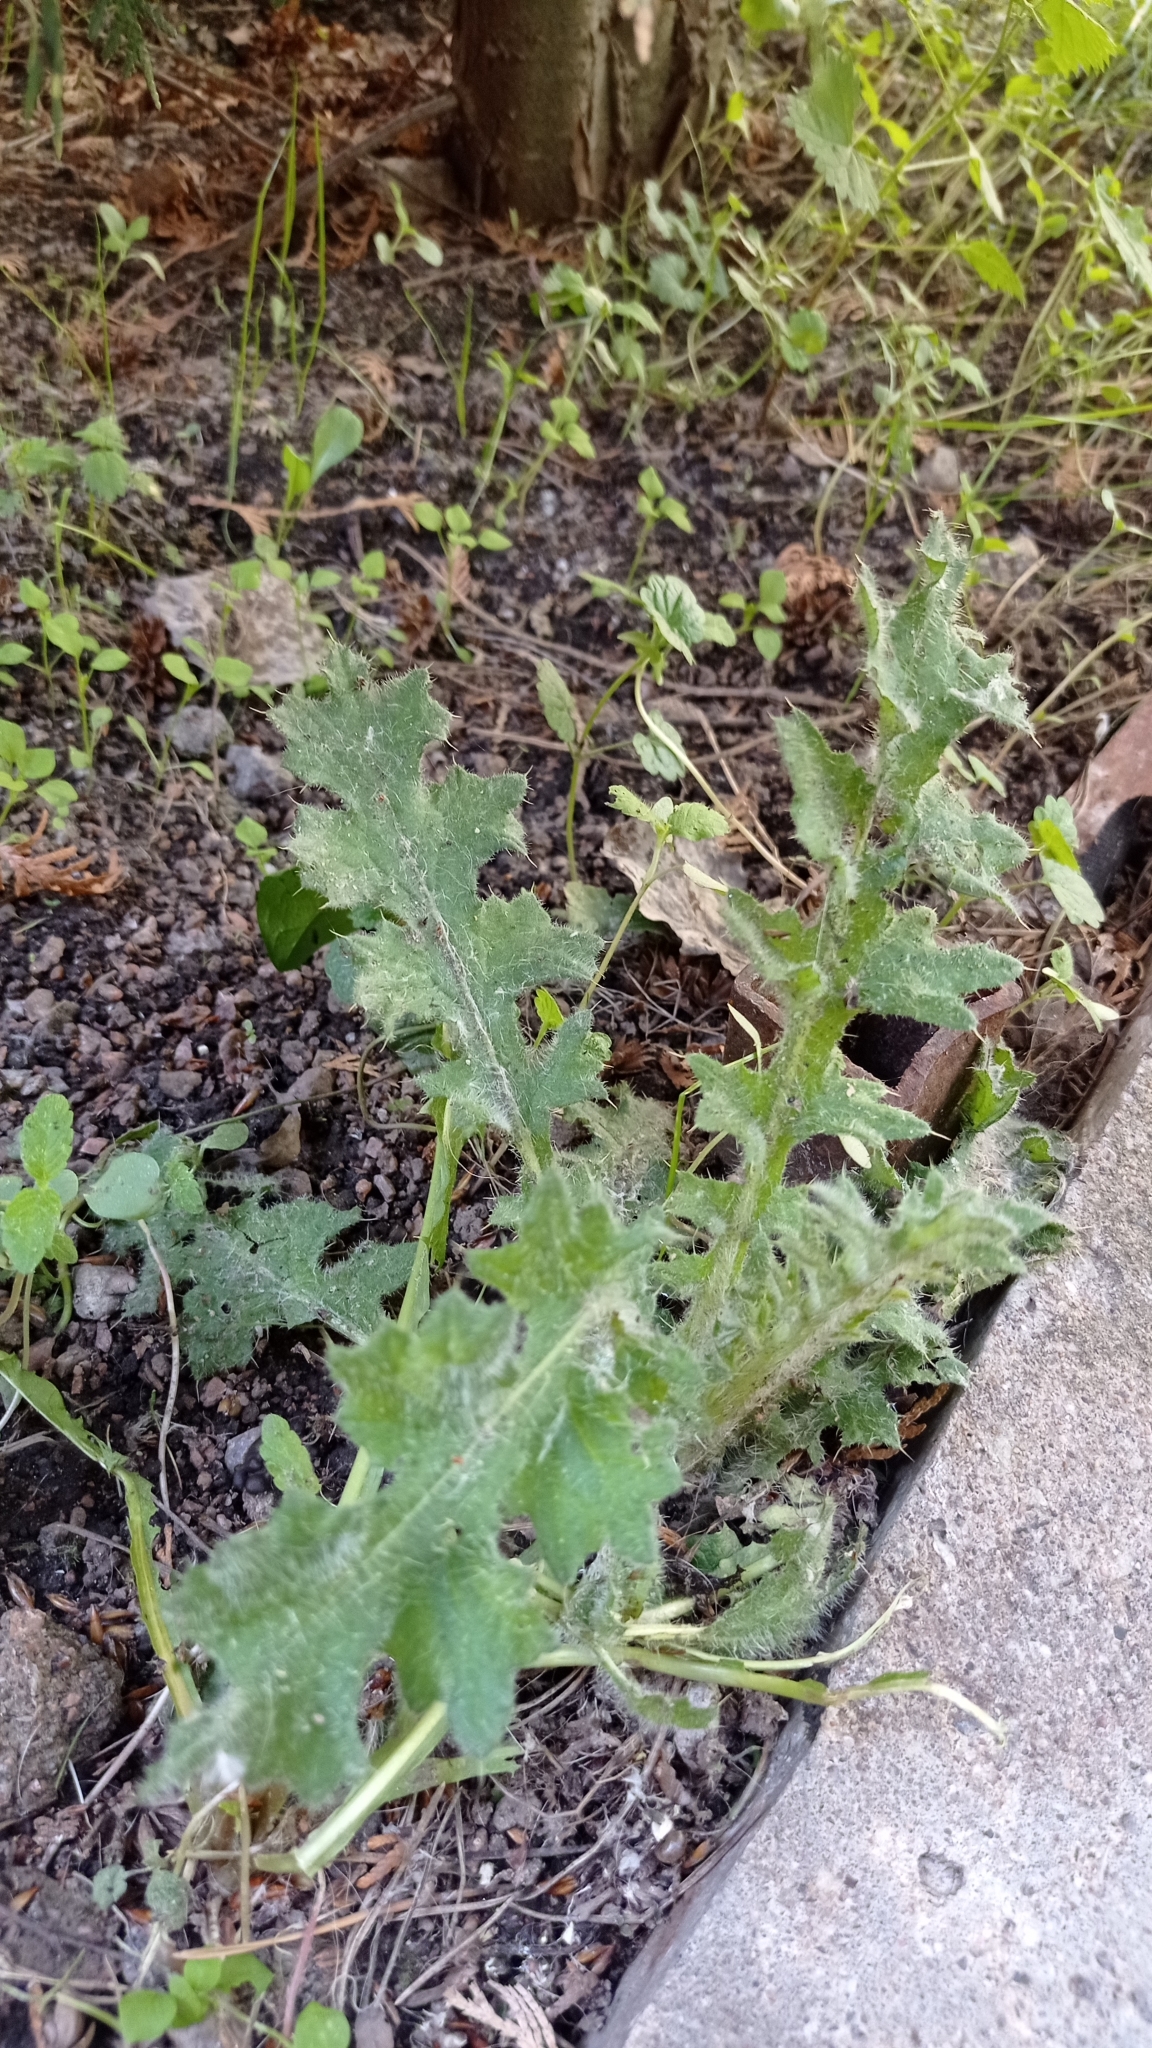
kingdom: Plantae
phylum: Tracheophyta
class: Magnoliopsida
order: Asterales
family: Asteraceae
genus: Carduus
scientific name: Carduus crispus
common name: Welted thistle
